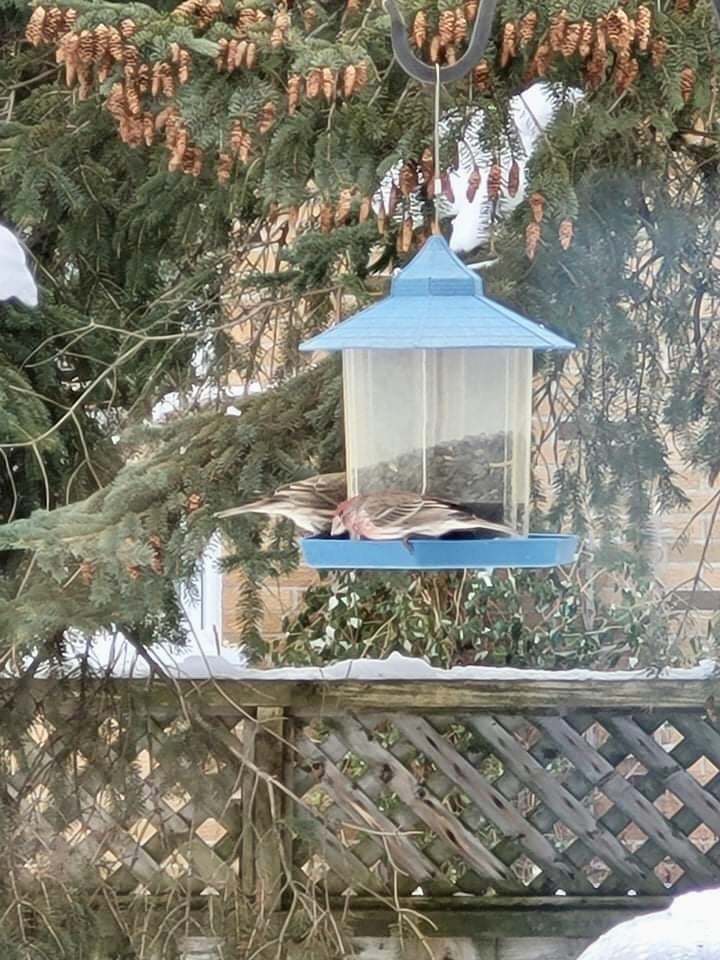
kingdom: Animalia
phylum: Chordata
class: Aves
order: Passeriformes
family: Fringillidae
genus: Haemorhous
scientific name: Haemorhous mexicanus
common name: House finch
